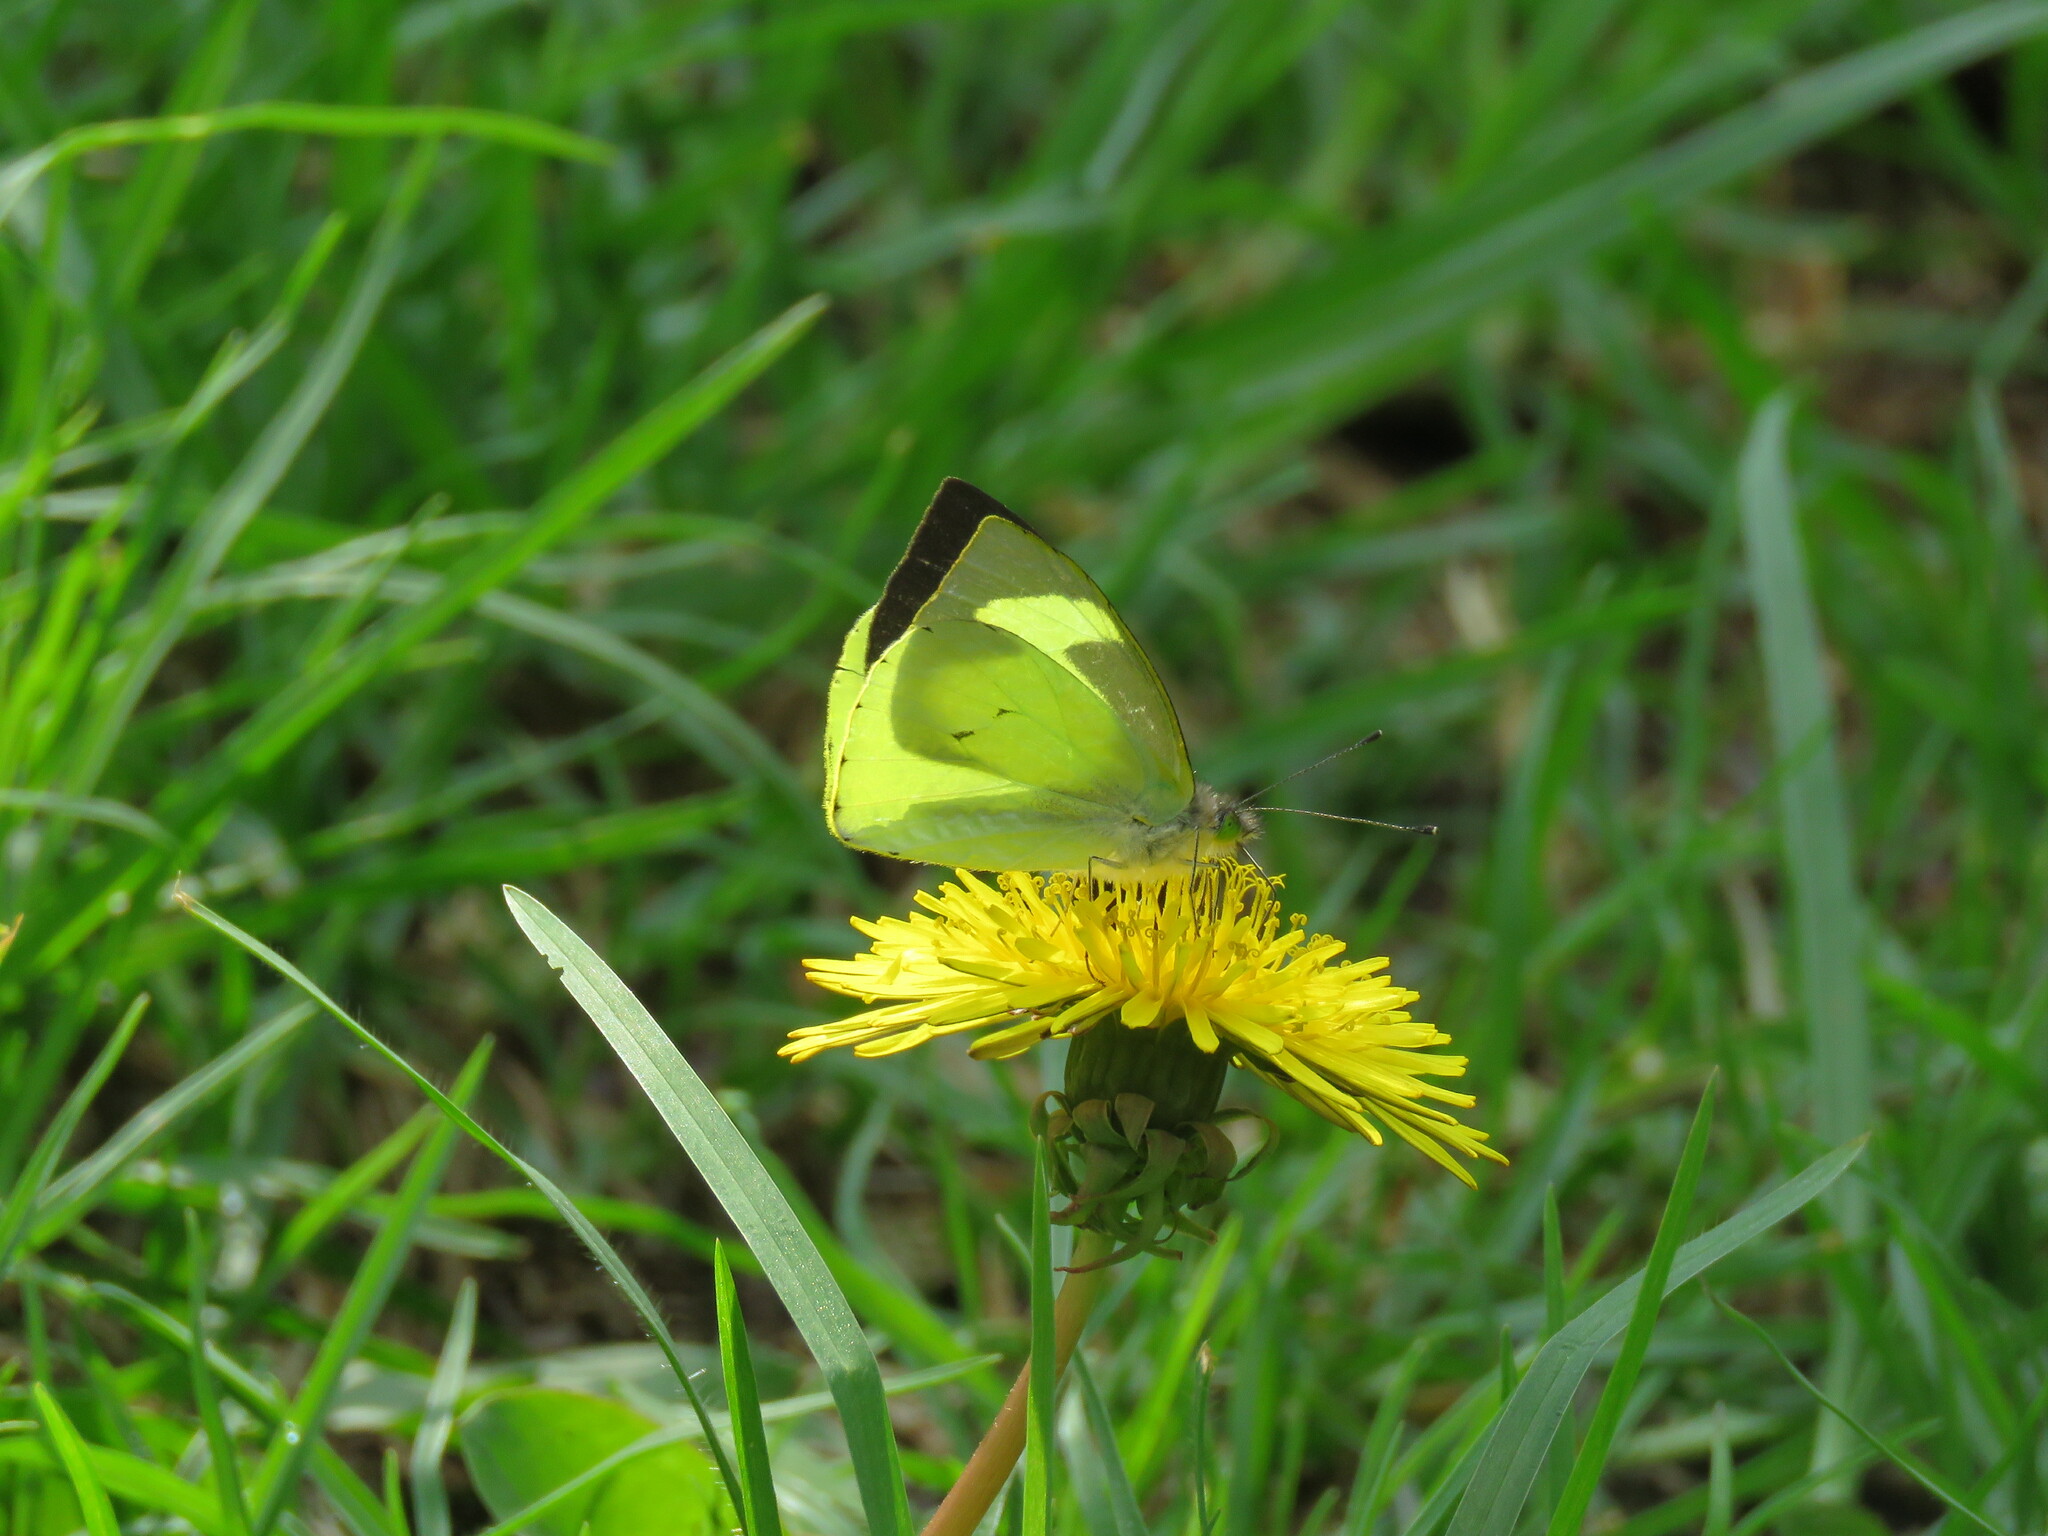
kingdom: Animalia
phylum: Arthropoda
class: Insecta
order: Lepidoptera
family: Pieridae
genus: Leptophobia
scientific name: Leptophobia eleone
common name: Silky wanderer
